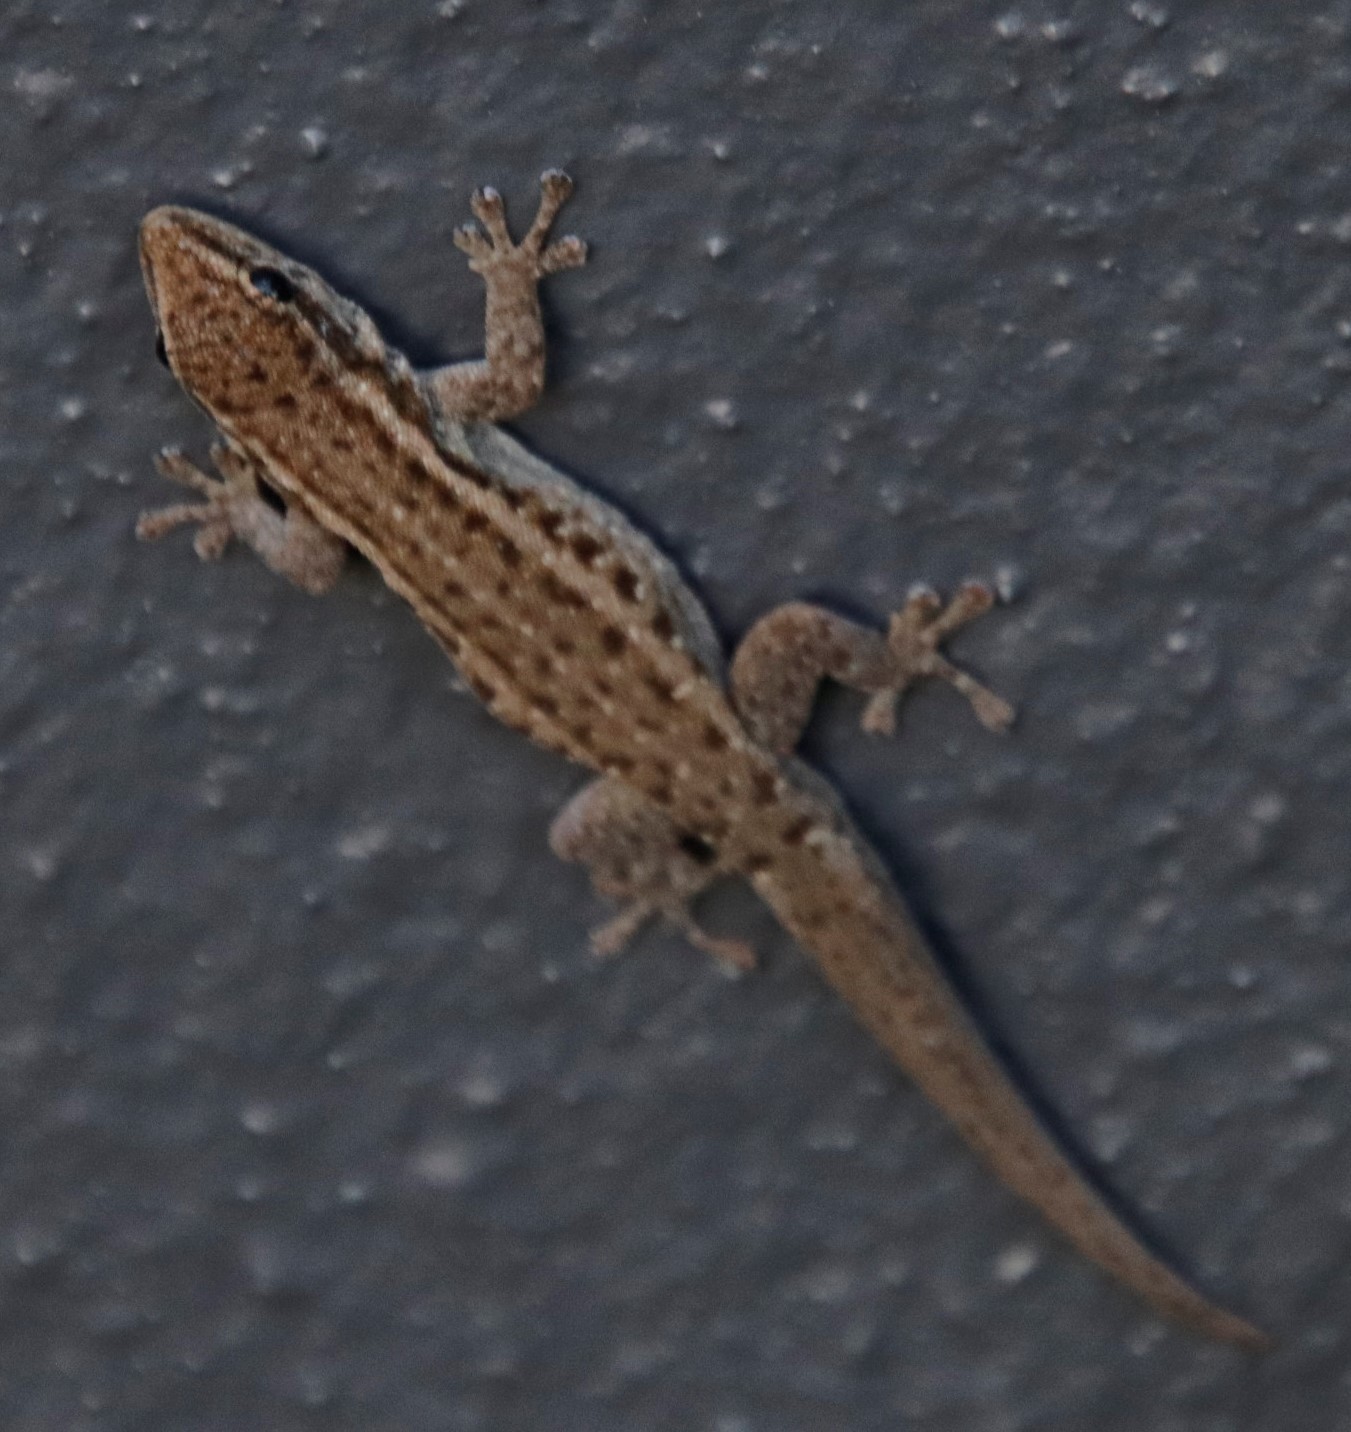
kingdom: Animalia
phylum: Chordata
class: Squamata
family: Gekkonidae
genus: Lygodactylus
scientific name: Lygodactylus capensis
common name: Cape dwarf gecko
